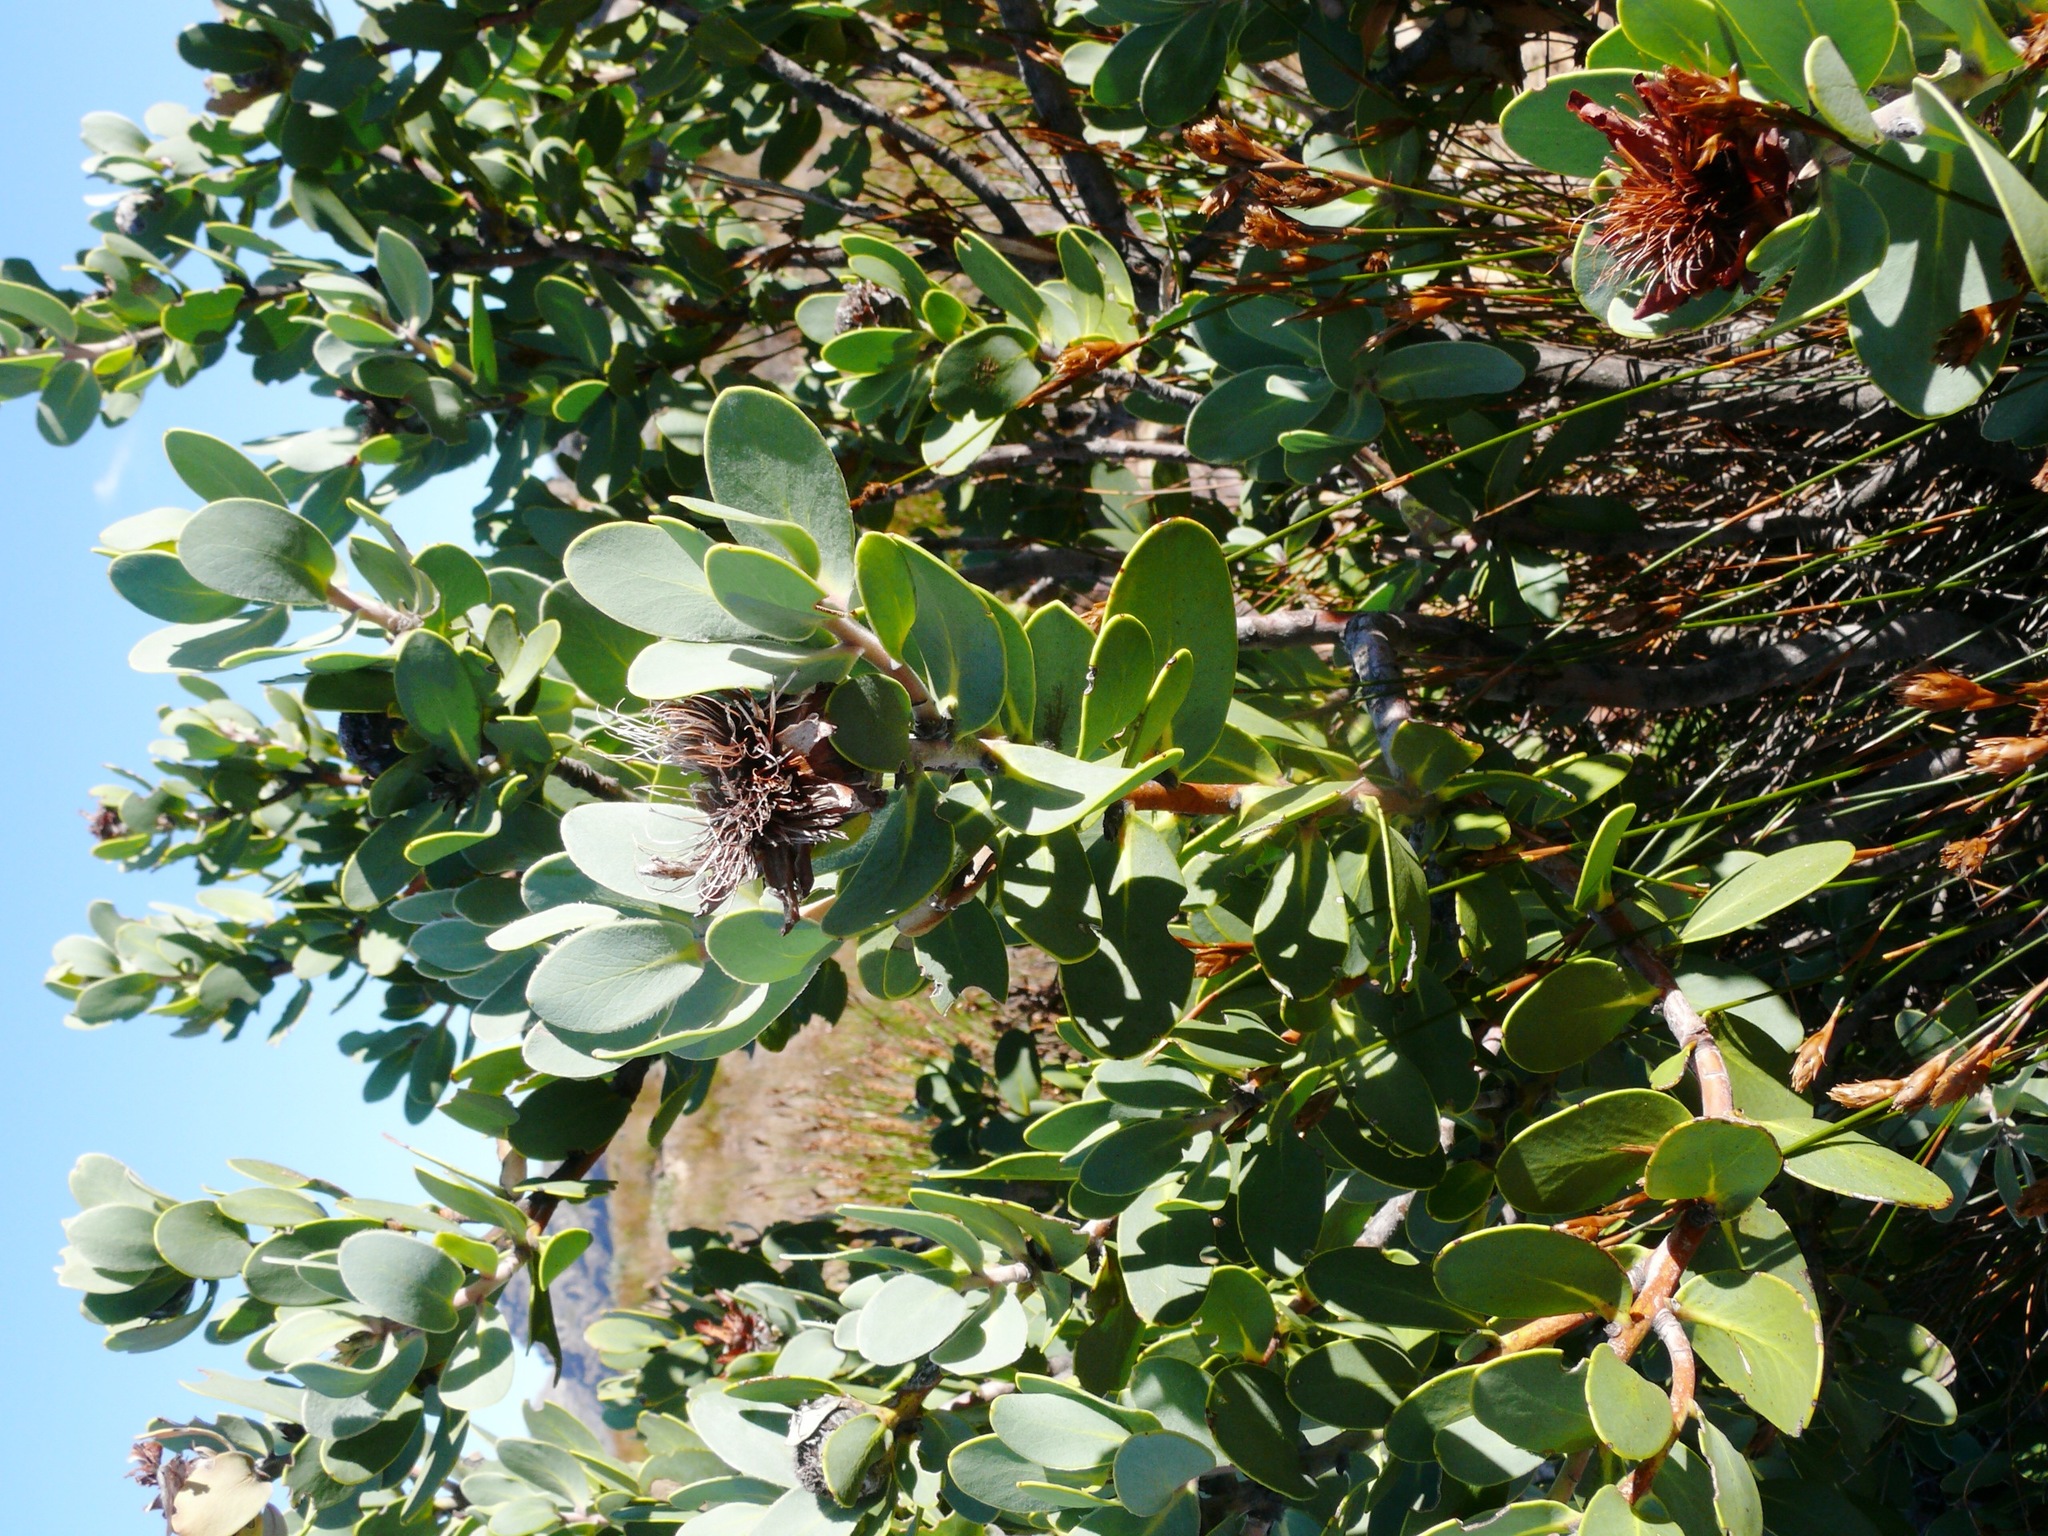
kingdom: Plantae
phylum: Tracheophyta
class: Magnoliopsida
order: Proteales
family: Proteaceae
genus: Protea
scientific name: Protea punctata
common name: Water sugarbush
